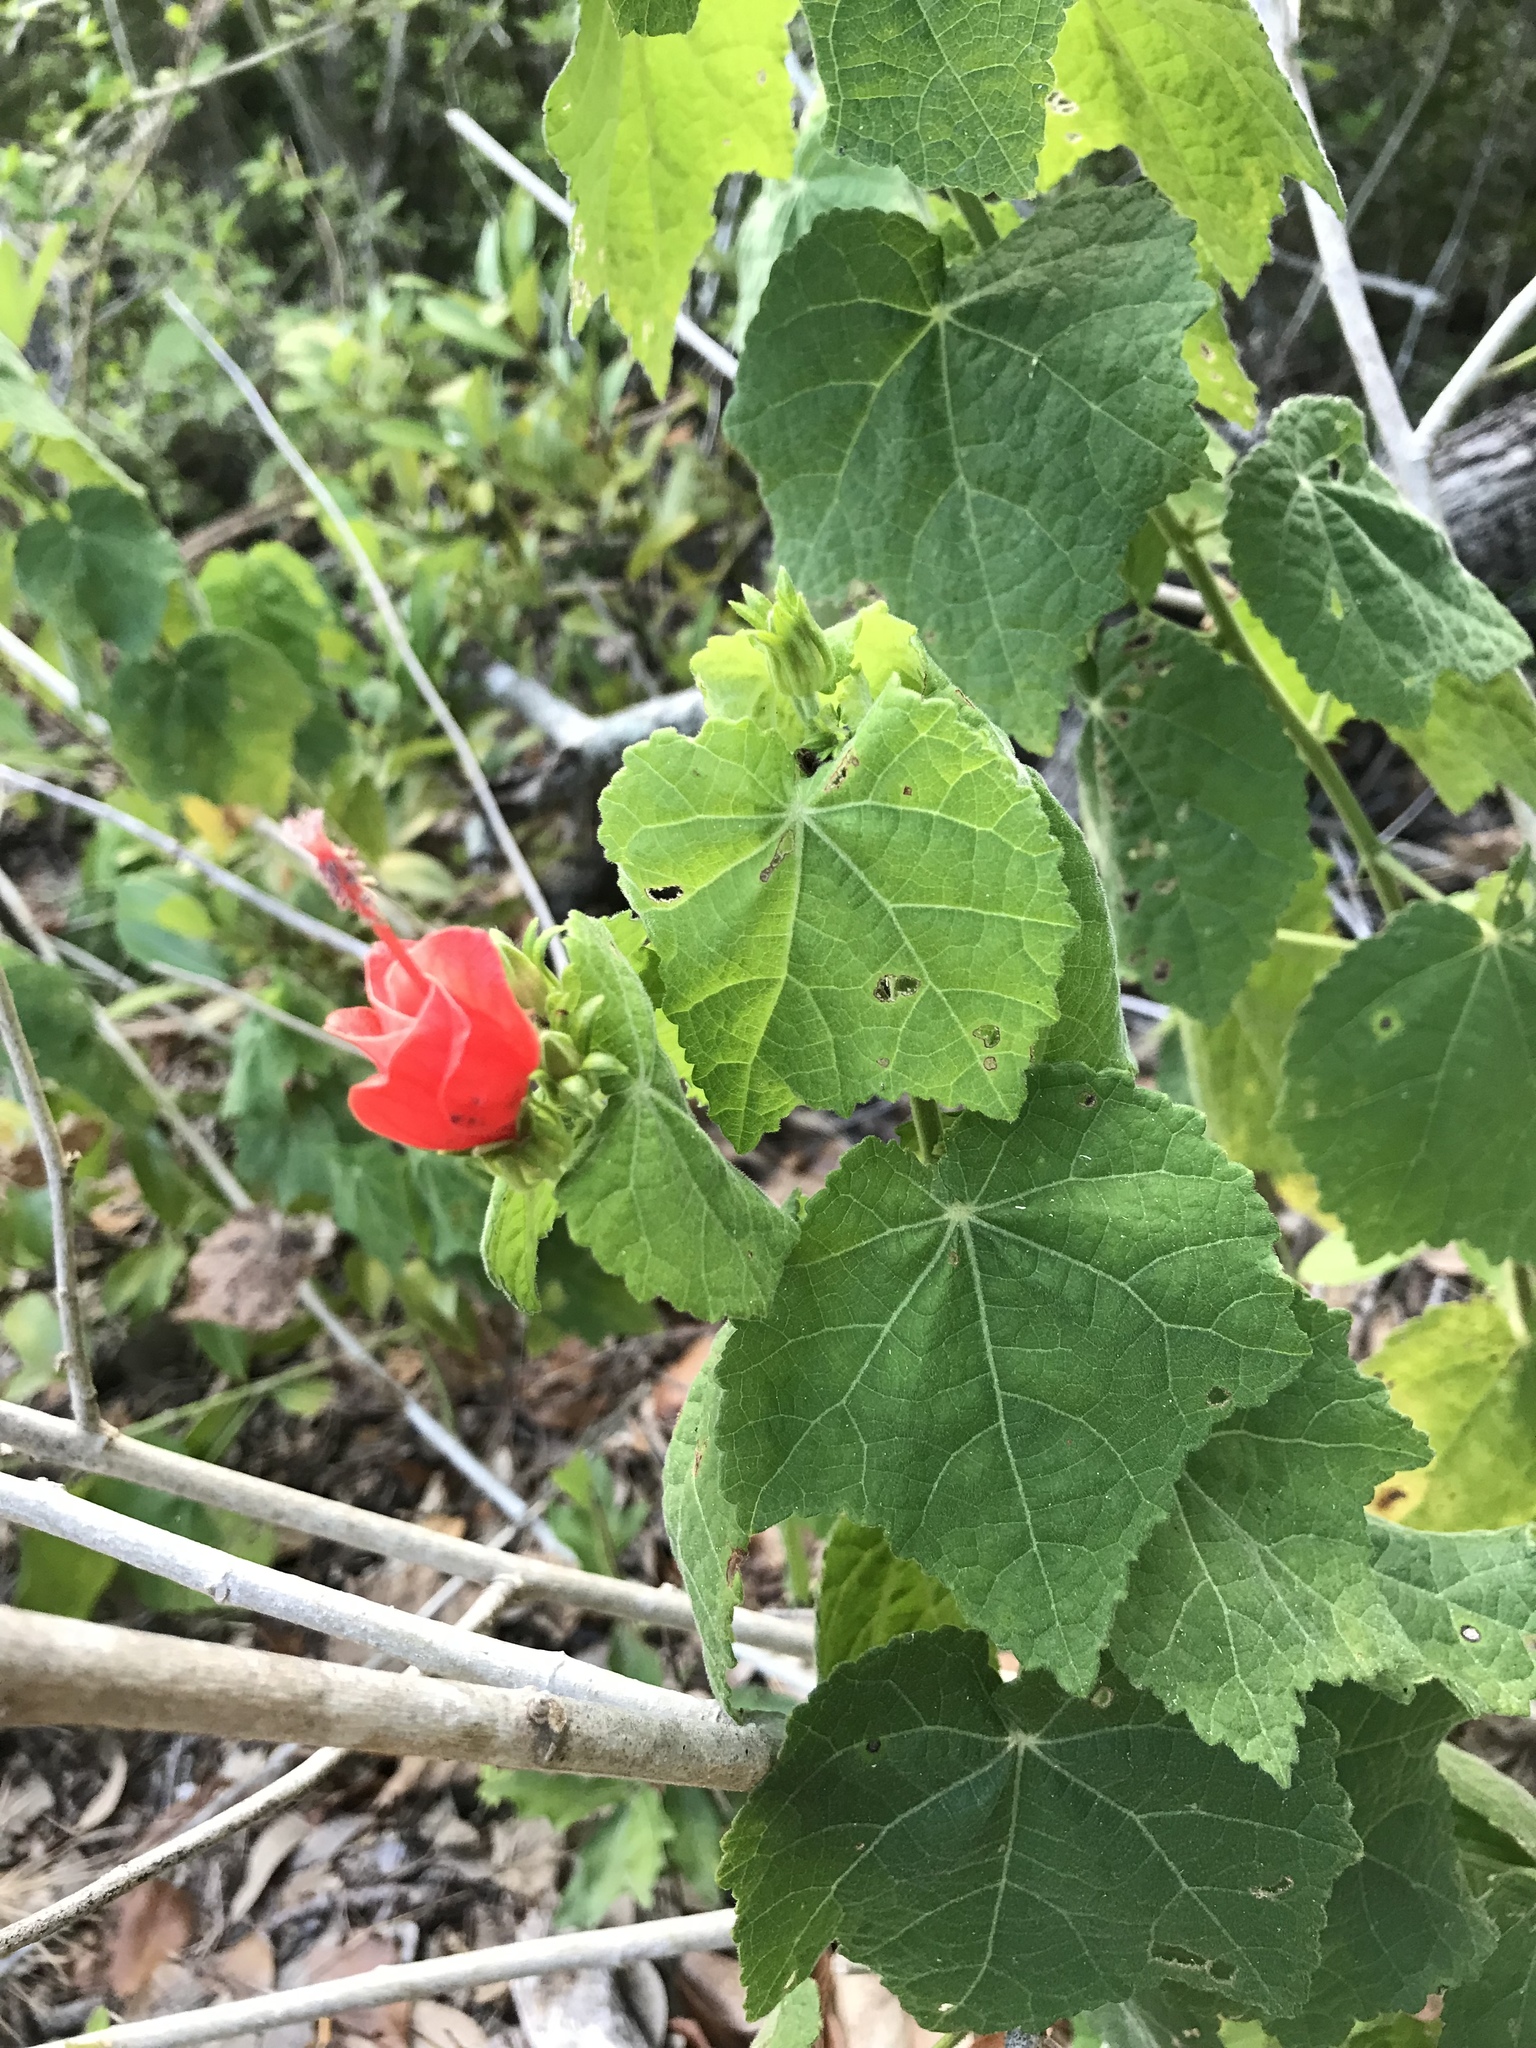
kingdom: Plantae
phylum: Tracheophyta
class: Magnoliopsida
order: Malvales
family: Malvaceae
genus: Malvaviscus
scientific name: Malvaviscus arboreus
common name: Wax mallow
